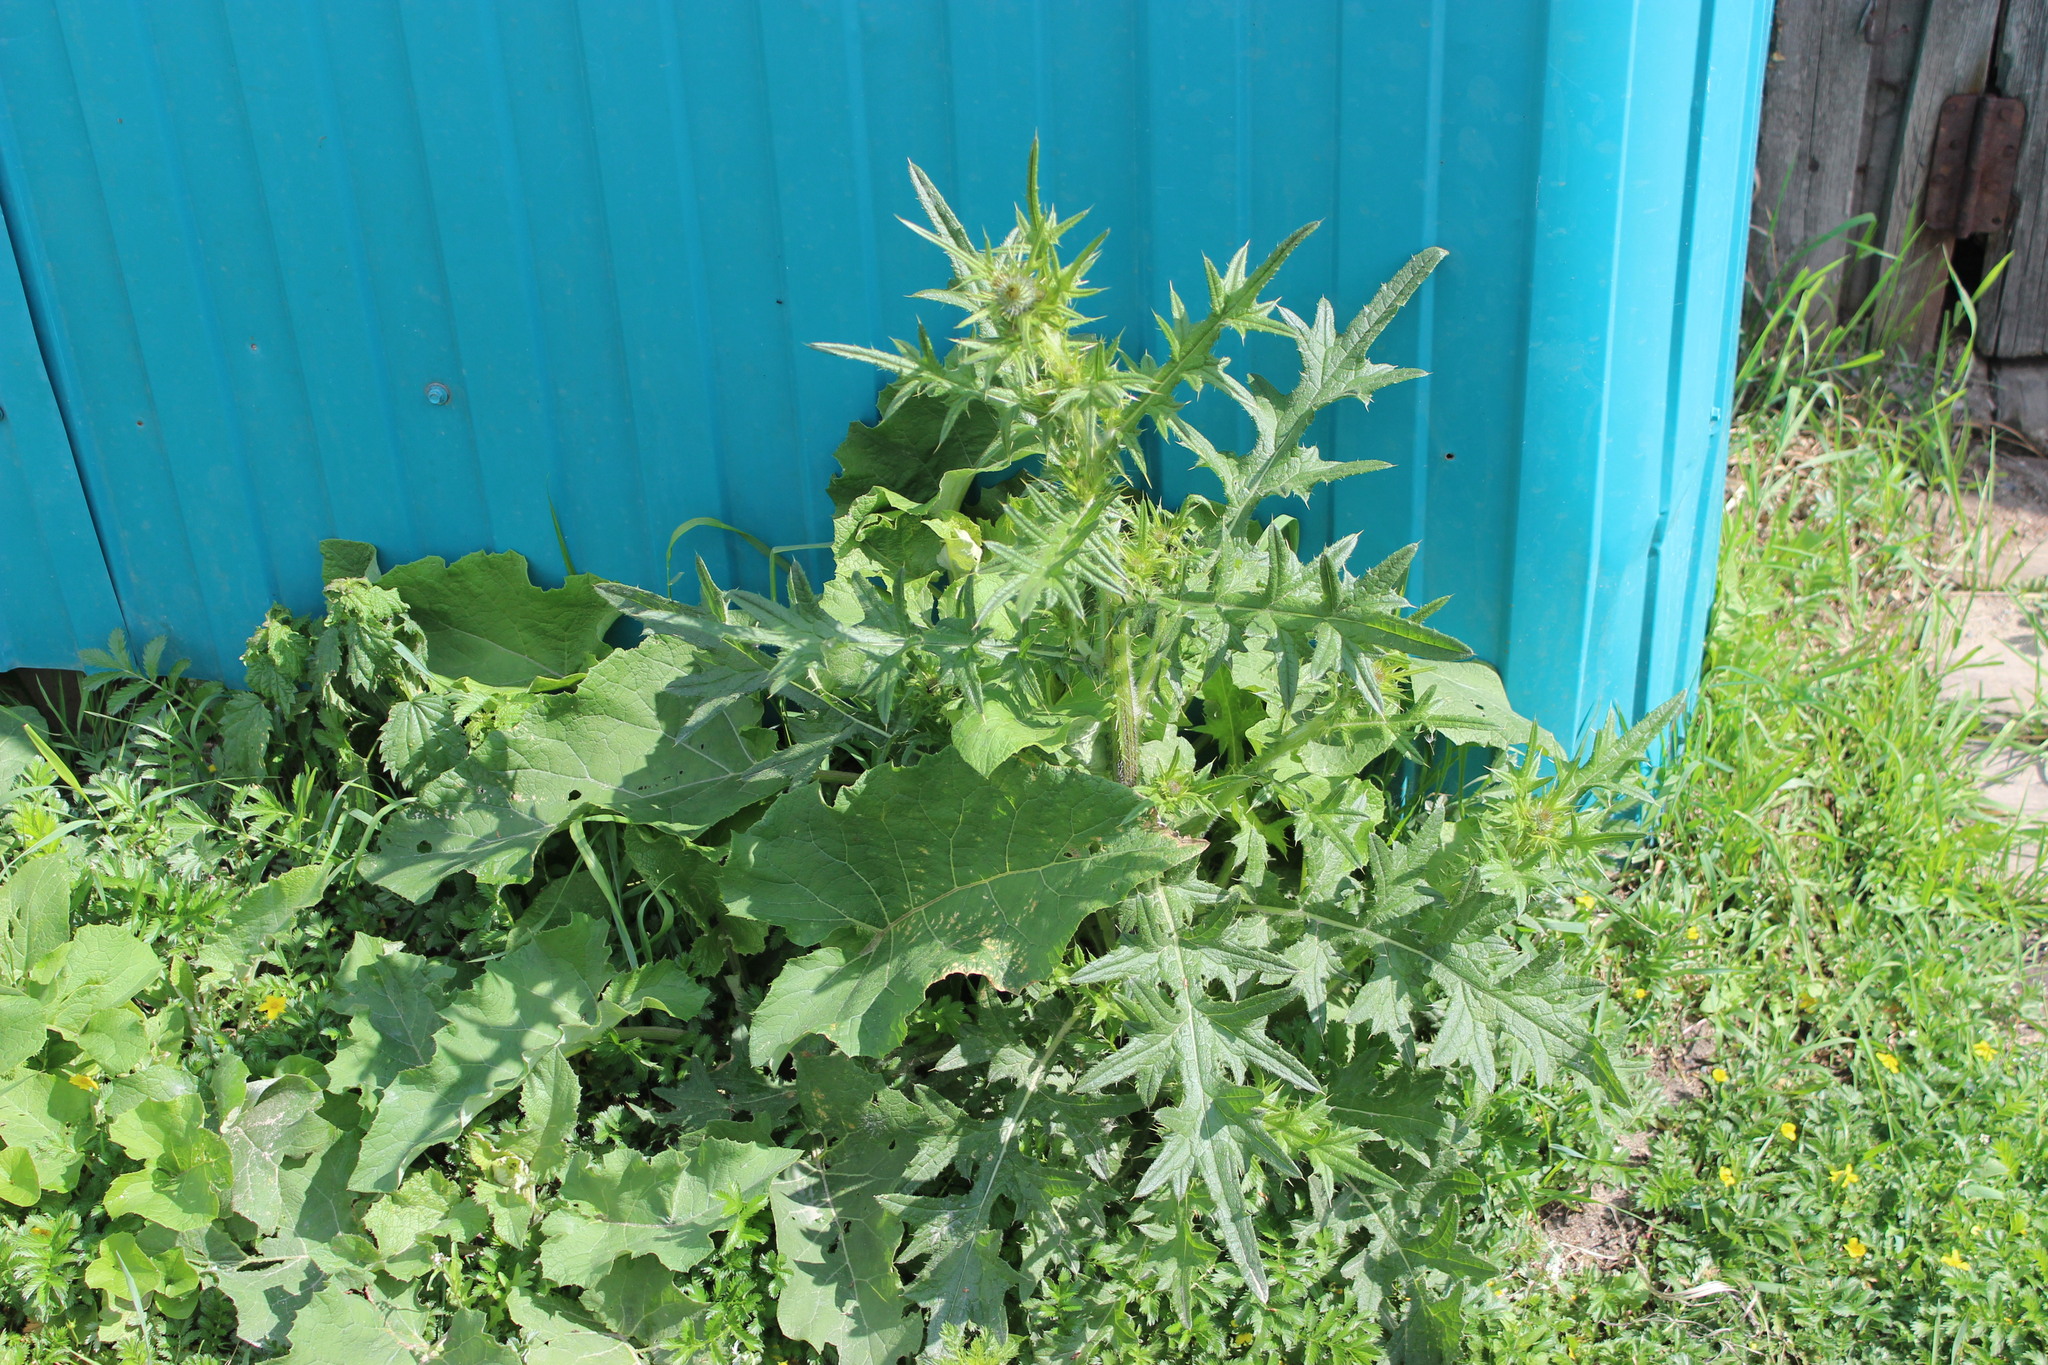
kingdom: Plantae
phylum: Tracheophyta
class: Magnoliopsida
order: Asterales
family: Asteraceae
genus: Cirsium
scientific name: Cirsium vulgare
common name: Bull thistle
